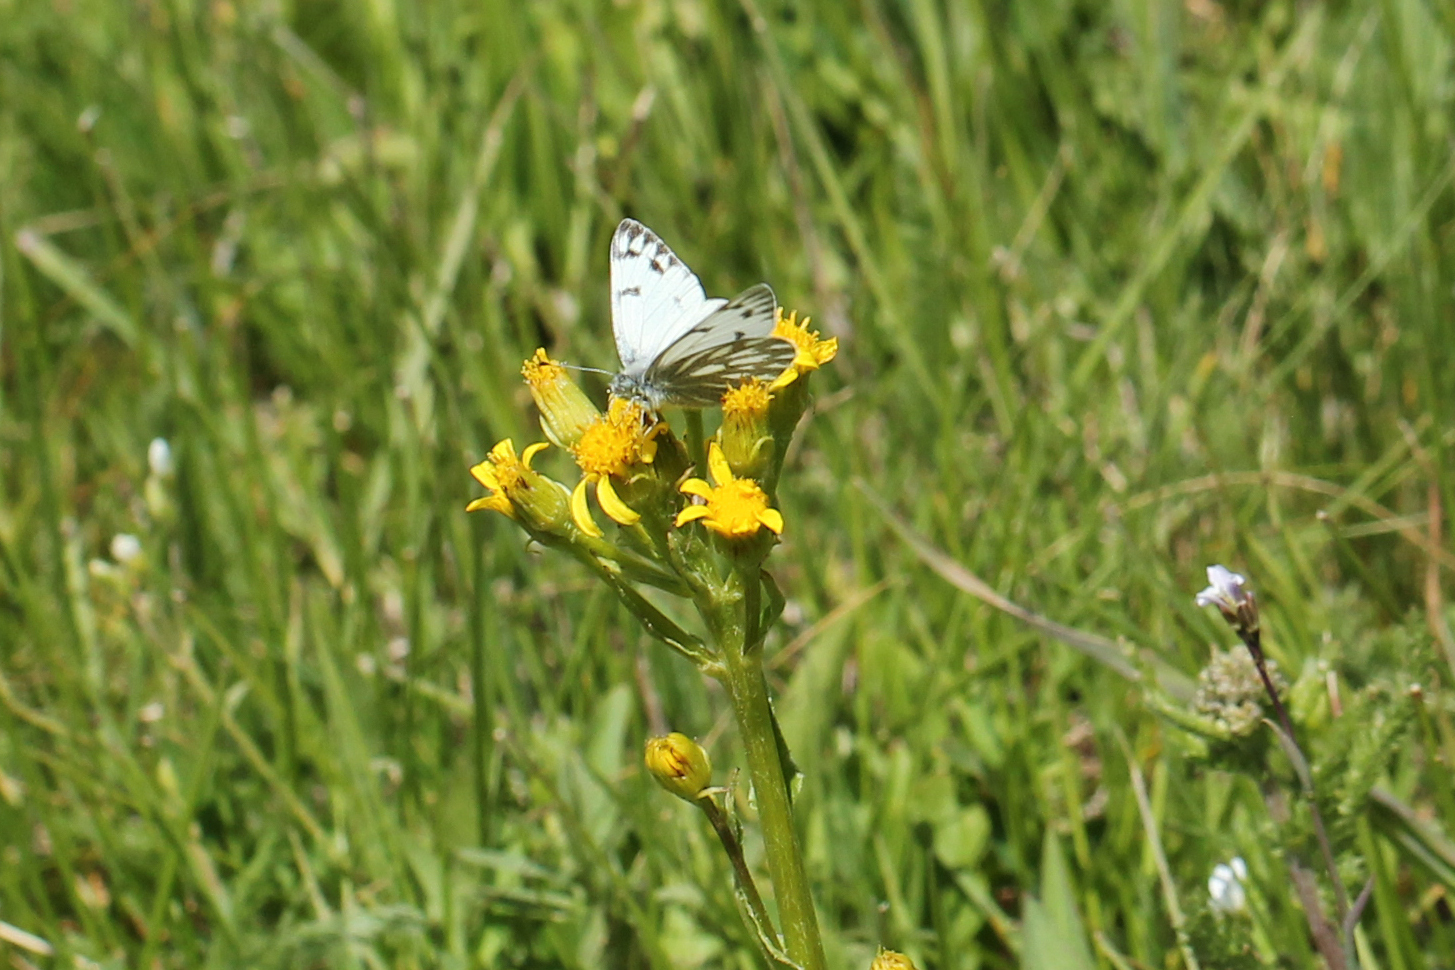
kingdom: Animalia
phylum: Arthropoda
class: Insecta
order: Lepidoptera
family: Pieridae
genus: Pontia
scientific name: Pontia occidentalis
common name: Western white
